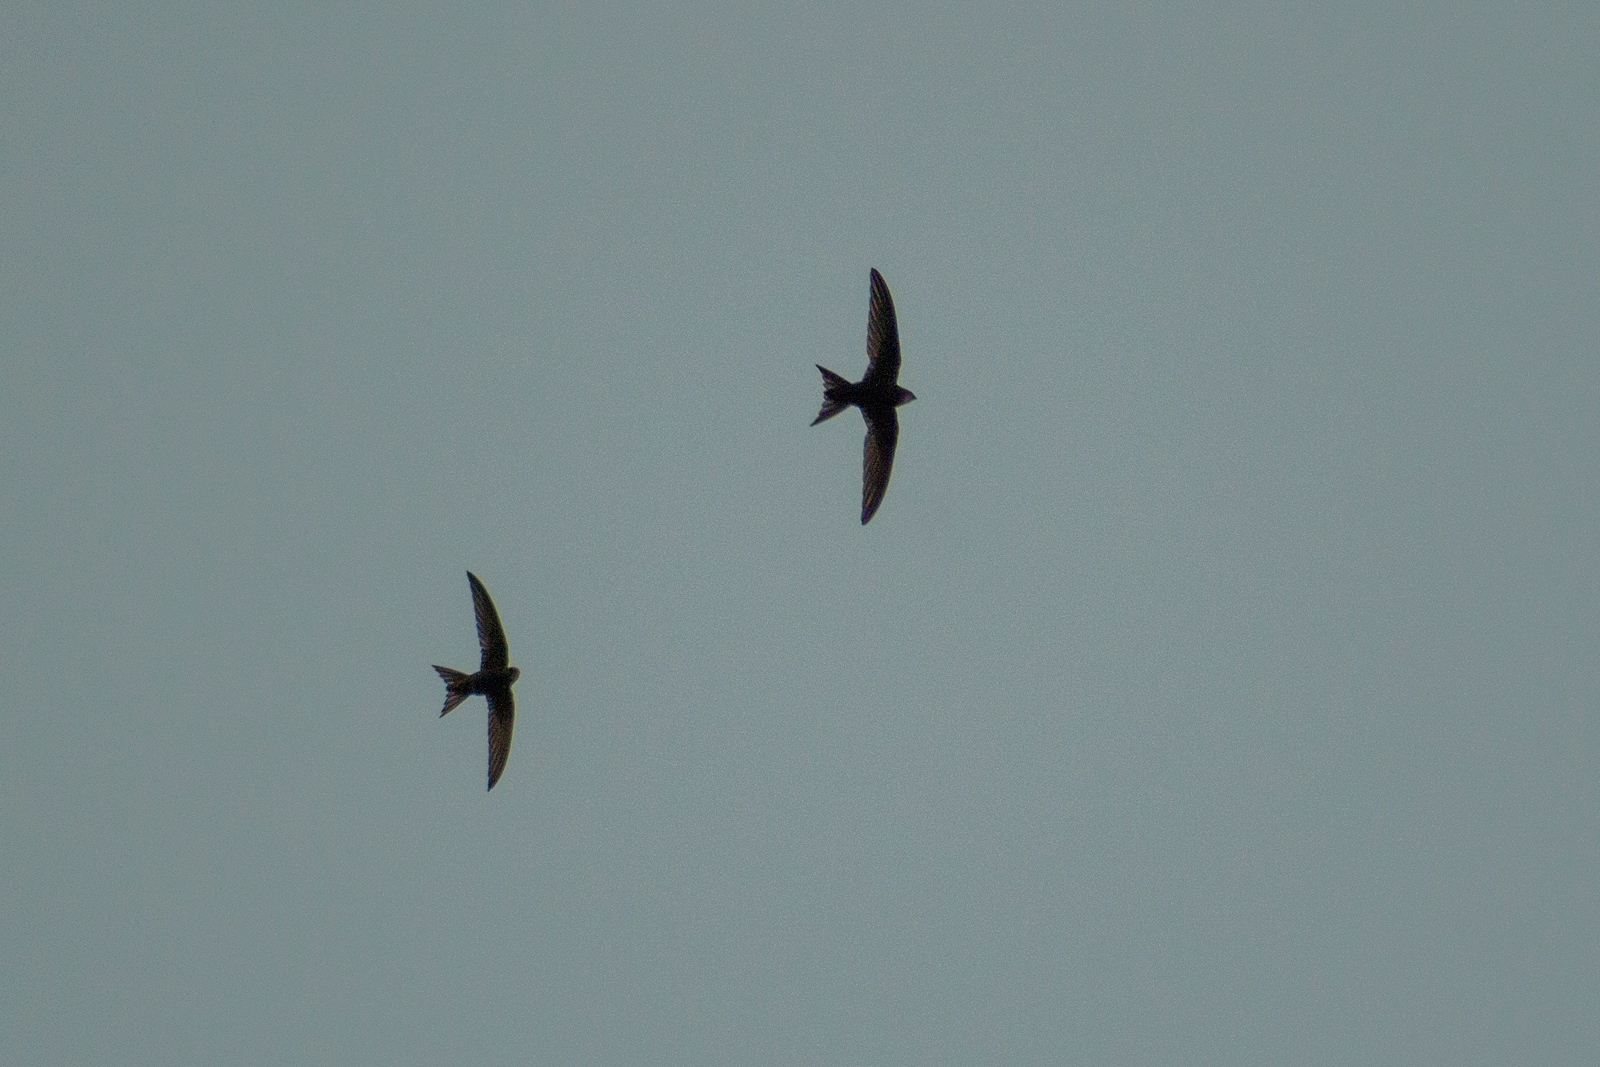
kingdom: Animalia
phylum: Chordata
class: Aves
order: Apodiformes
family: Apodidae
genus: Apus
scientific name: Apus apus
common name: Common swift
